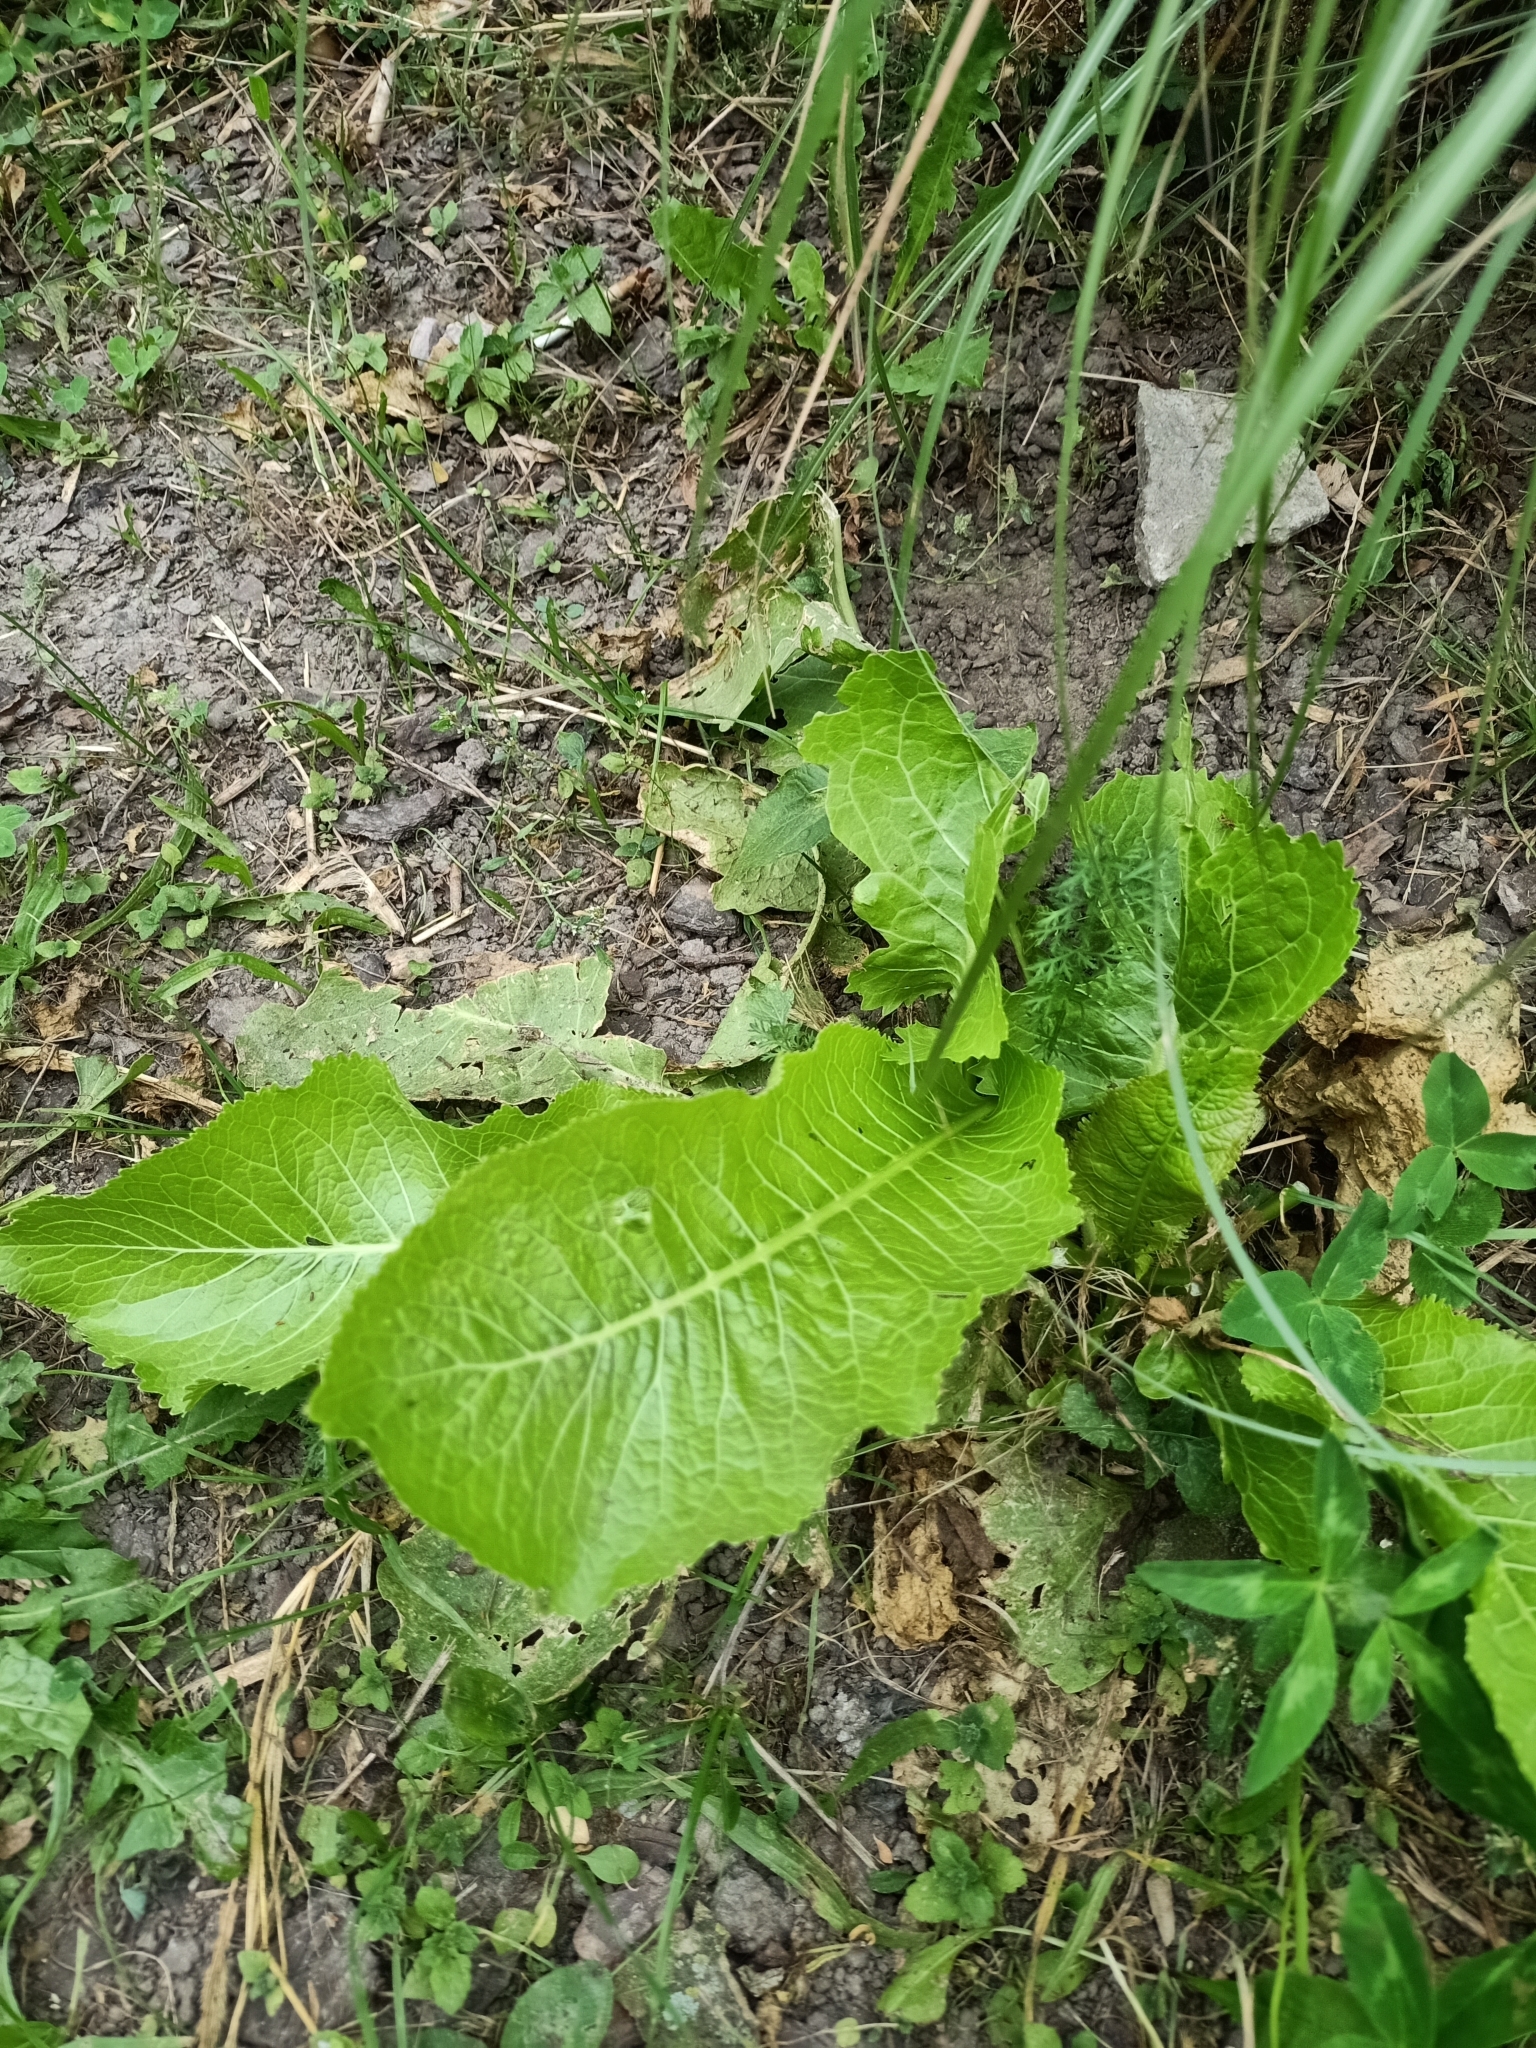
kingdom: Plantae
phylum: Tracheophyta
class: Magnoliopsida
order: Brassicales
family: Brassicaceae
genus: Armoracia
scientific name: Armoracia rusticana
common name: Horseradish
